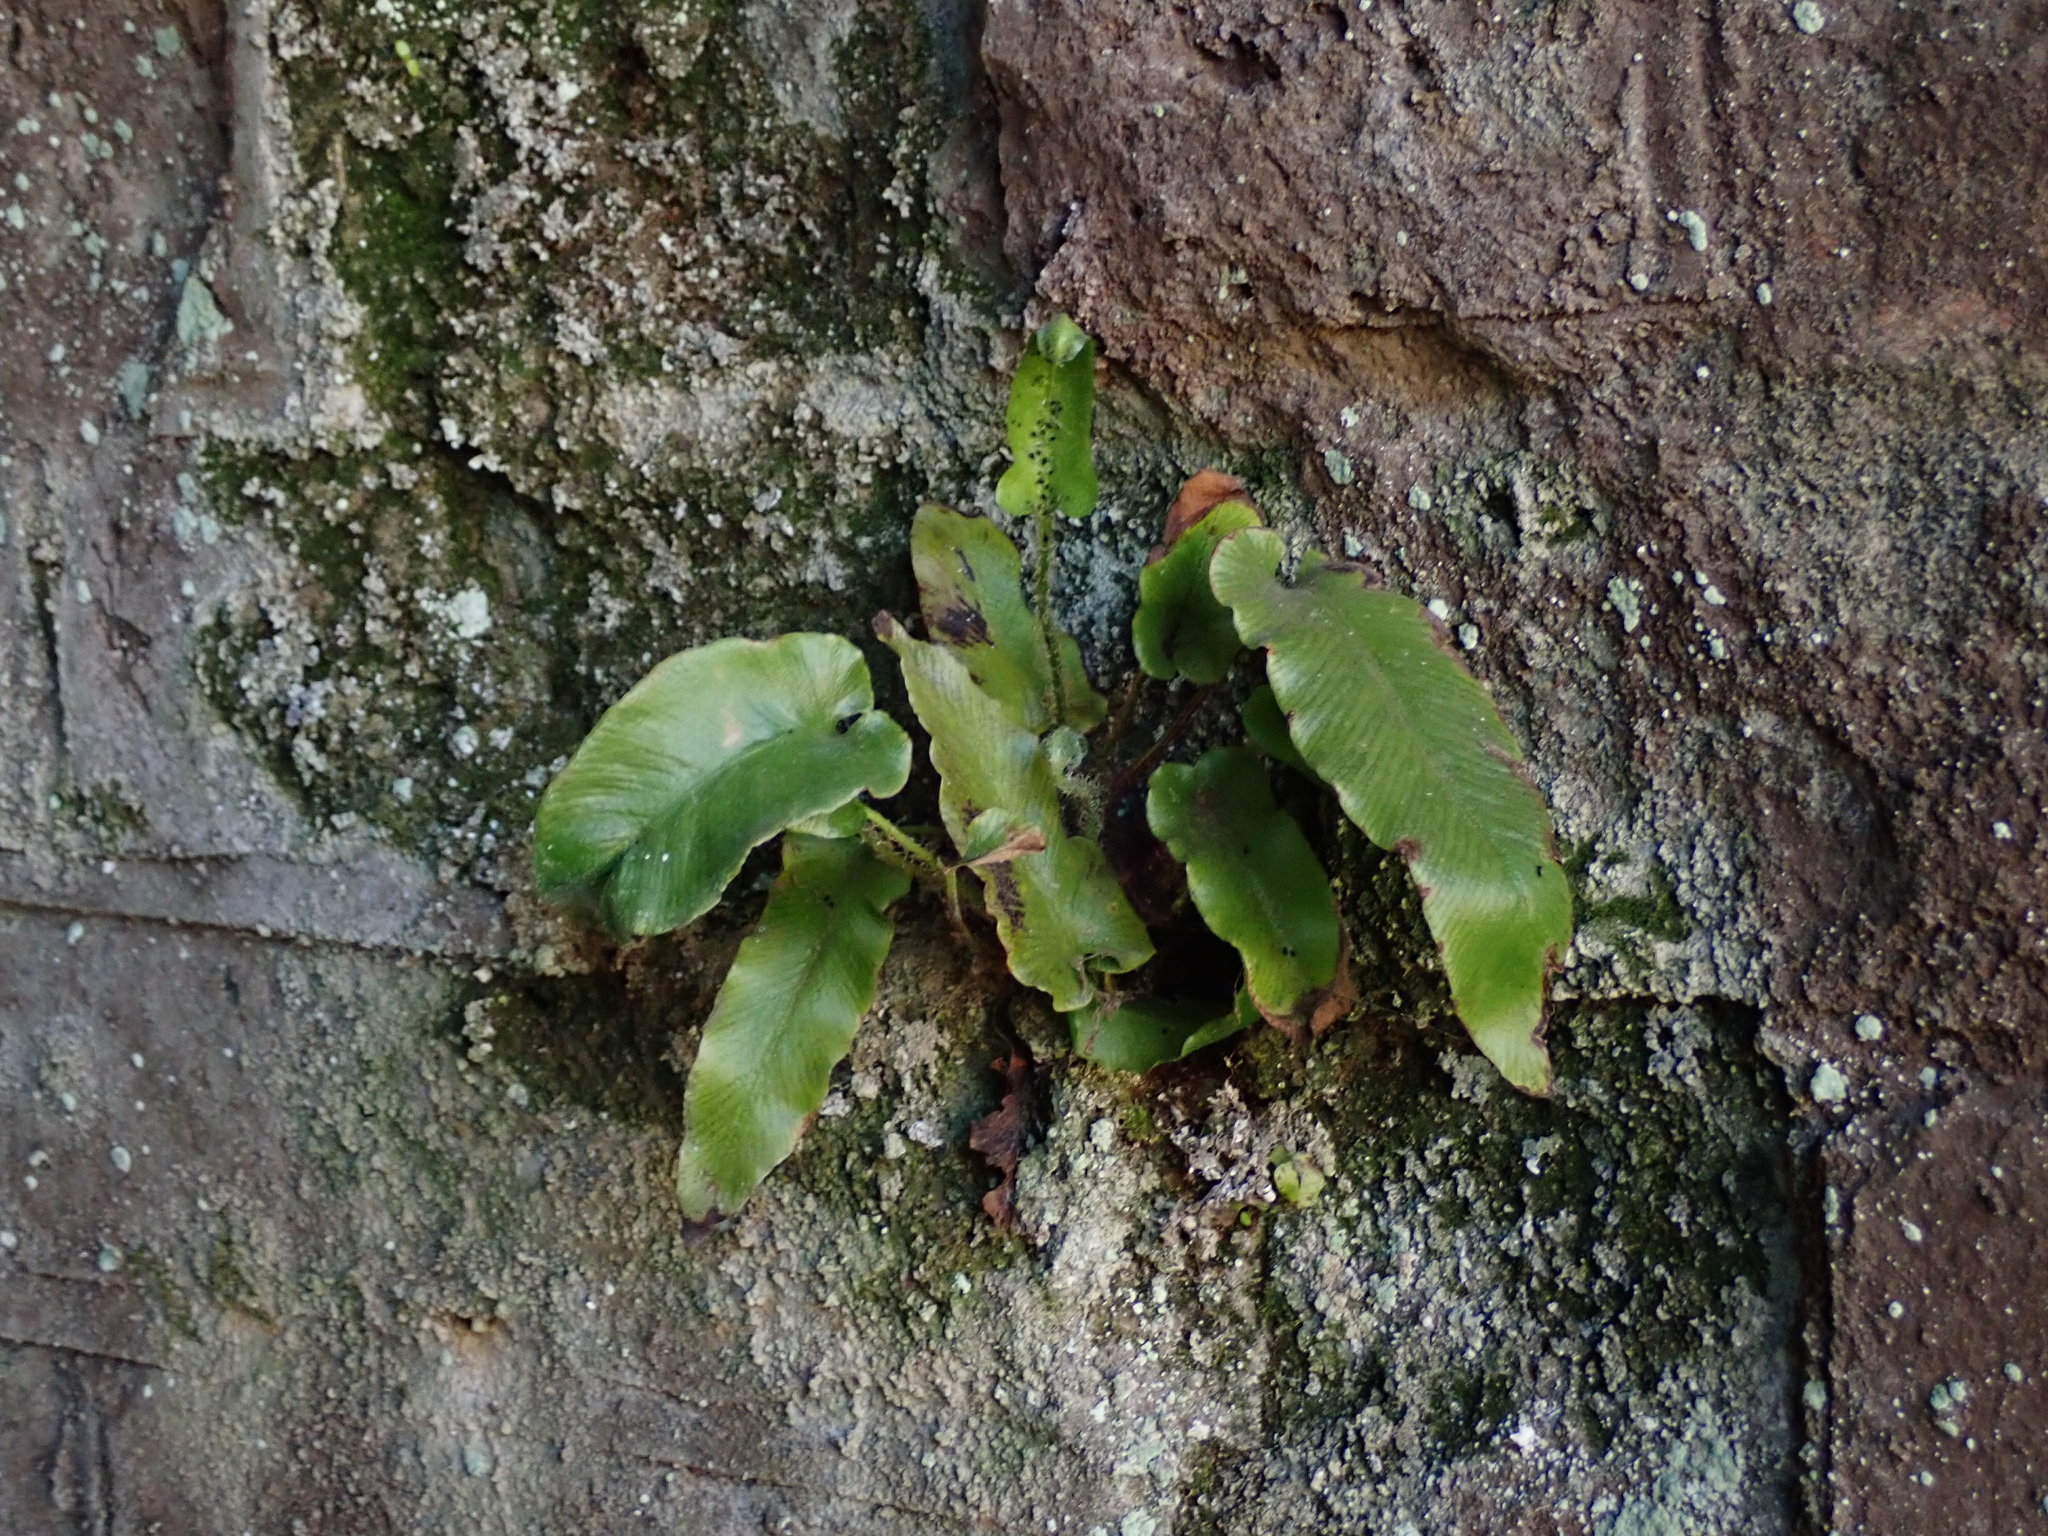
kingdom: Plantae
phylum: Tracheophyta
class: Polypodiopsida
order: Polypodiales
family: Aspleniaceae
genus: Asplenium
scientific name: Asplenium scolopendrium
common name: Hart's-tongue fern
